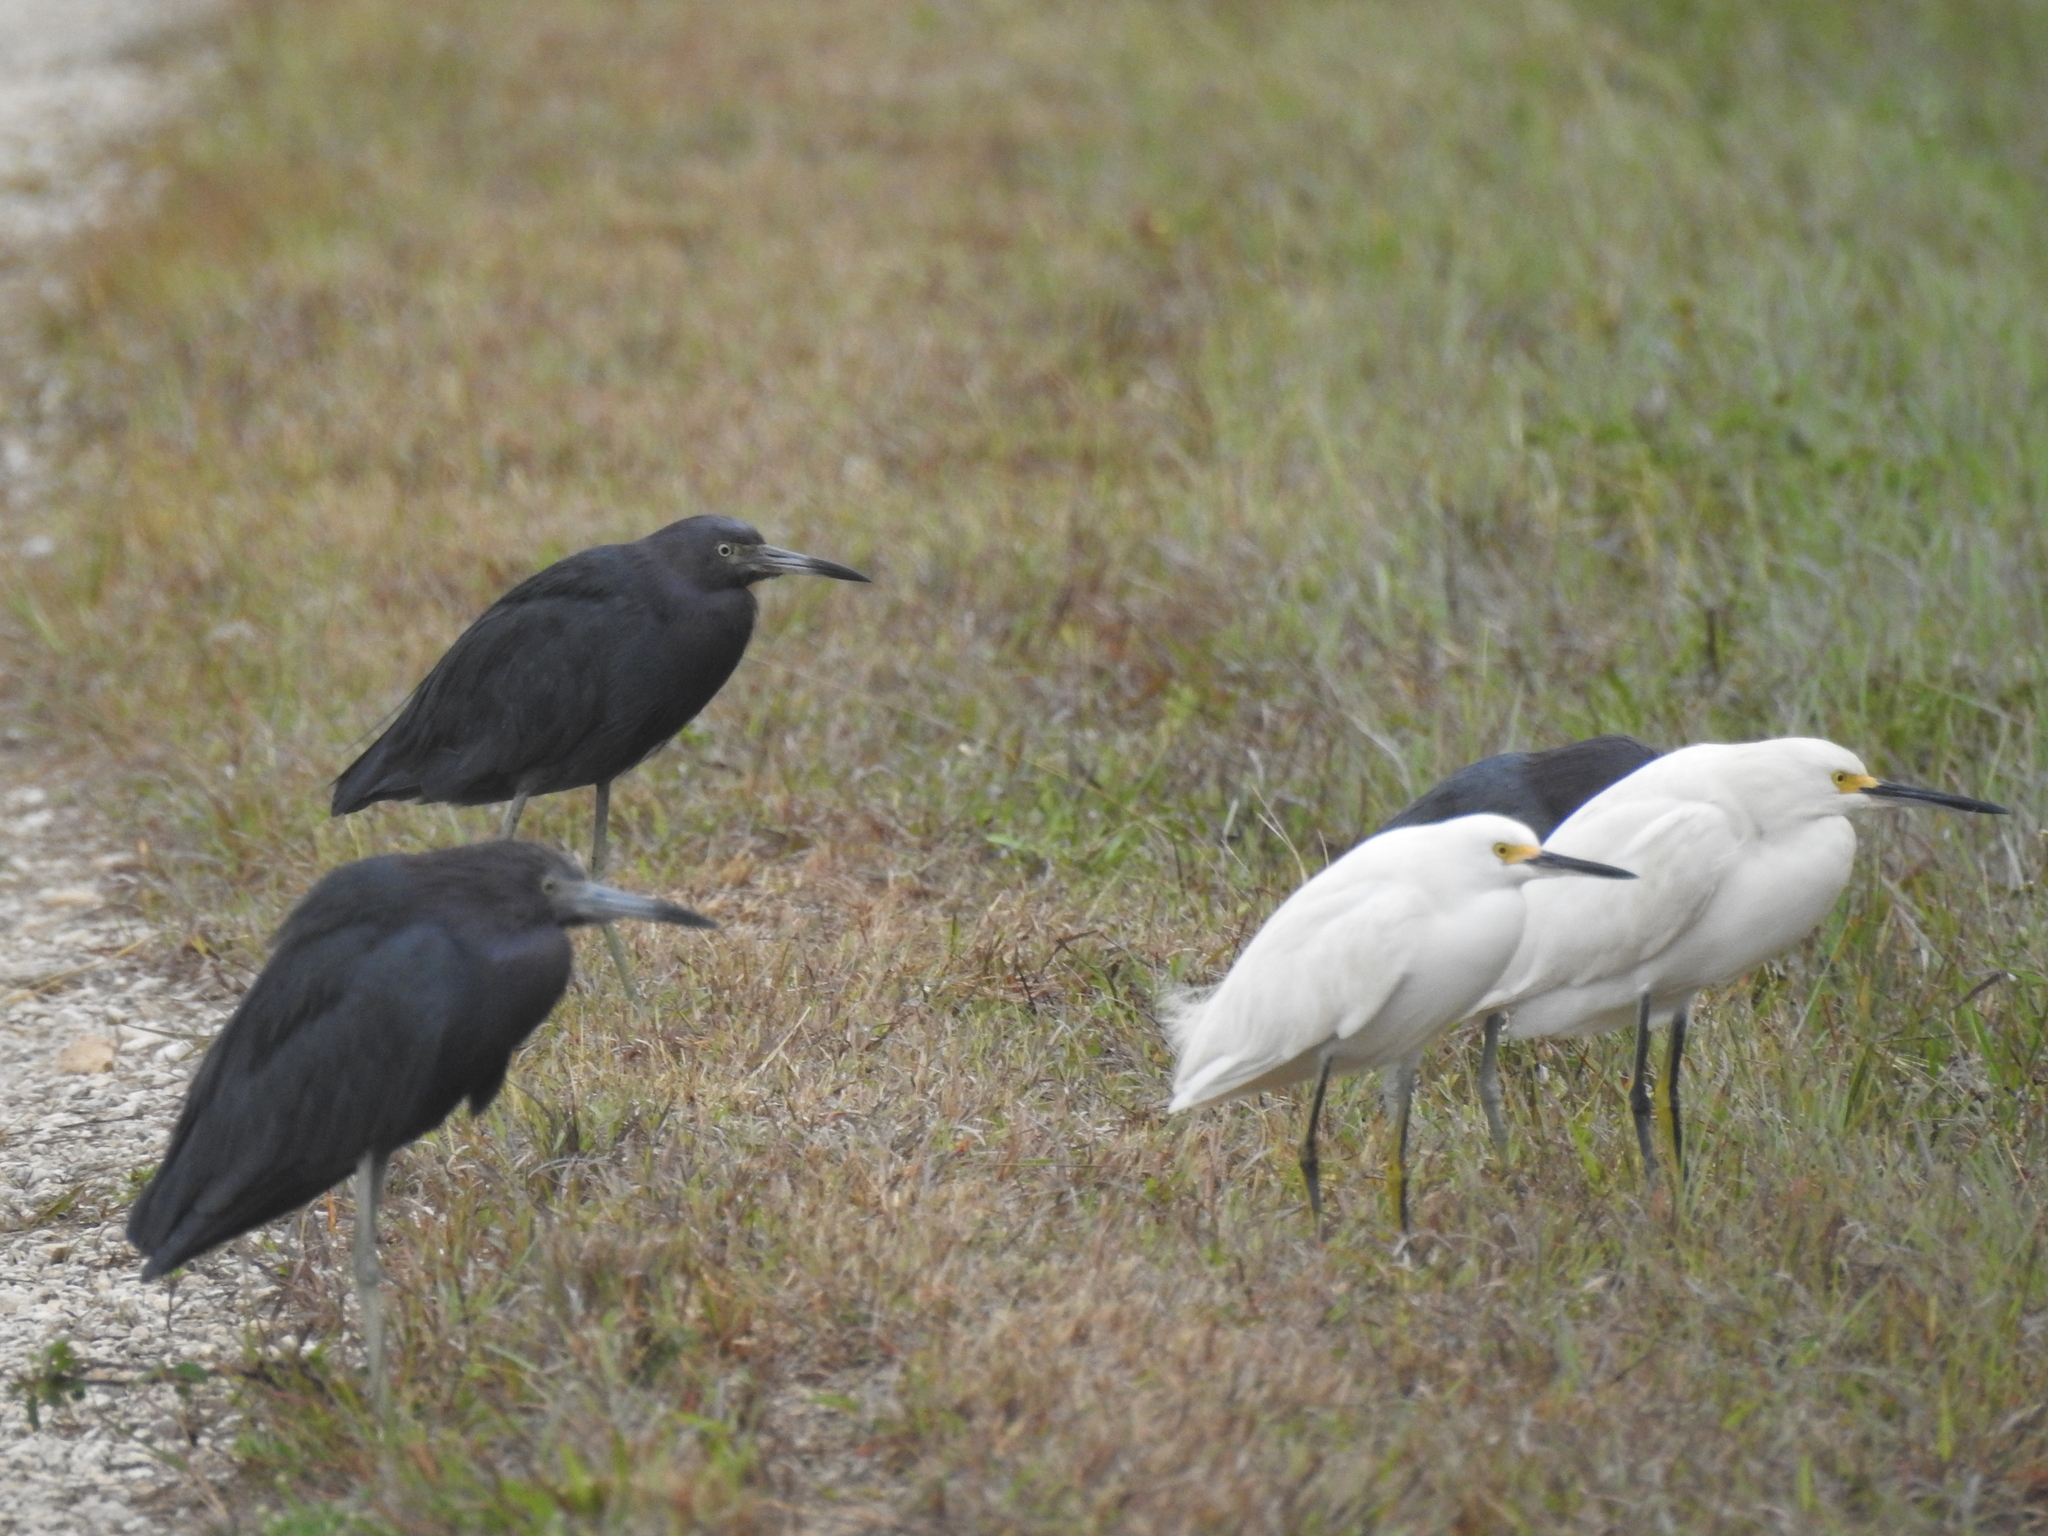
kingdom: Animalia
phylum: Chordata
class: Aves
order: Pelecaniformes
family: Ardeidae
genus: Egretta
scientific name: Egretta thula
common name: Snowy egret
